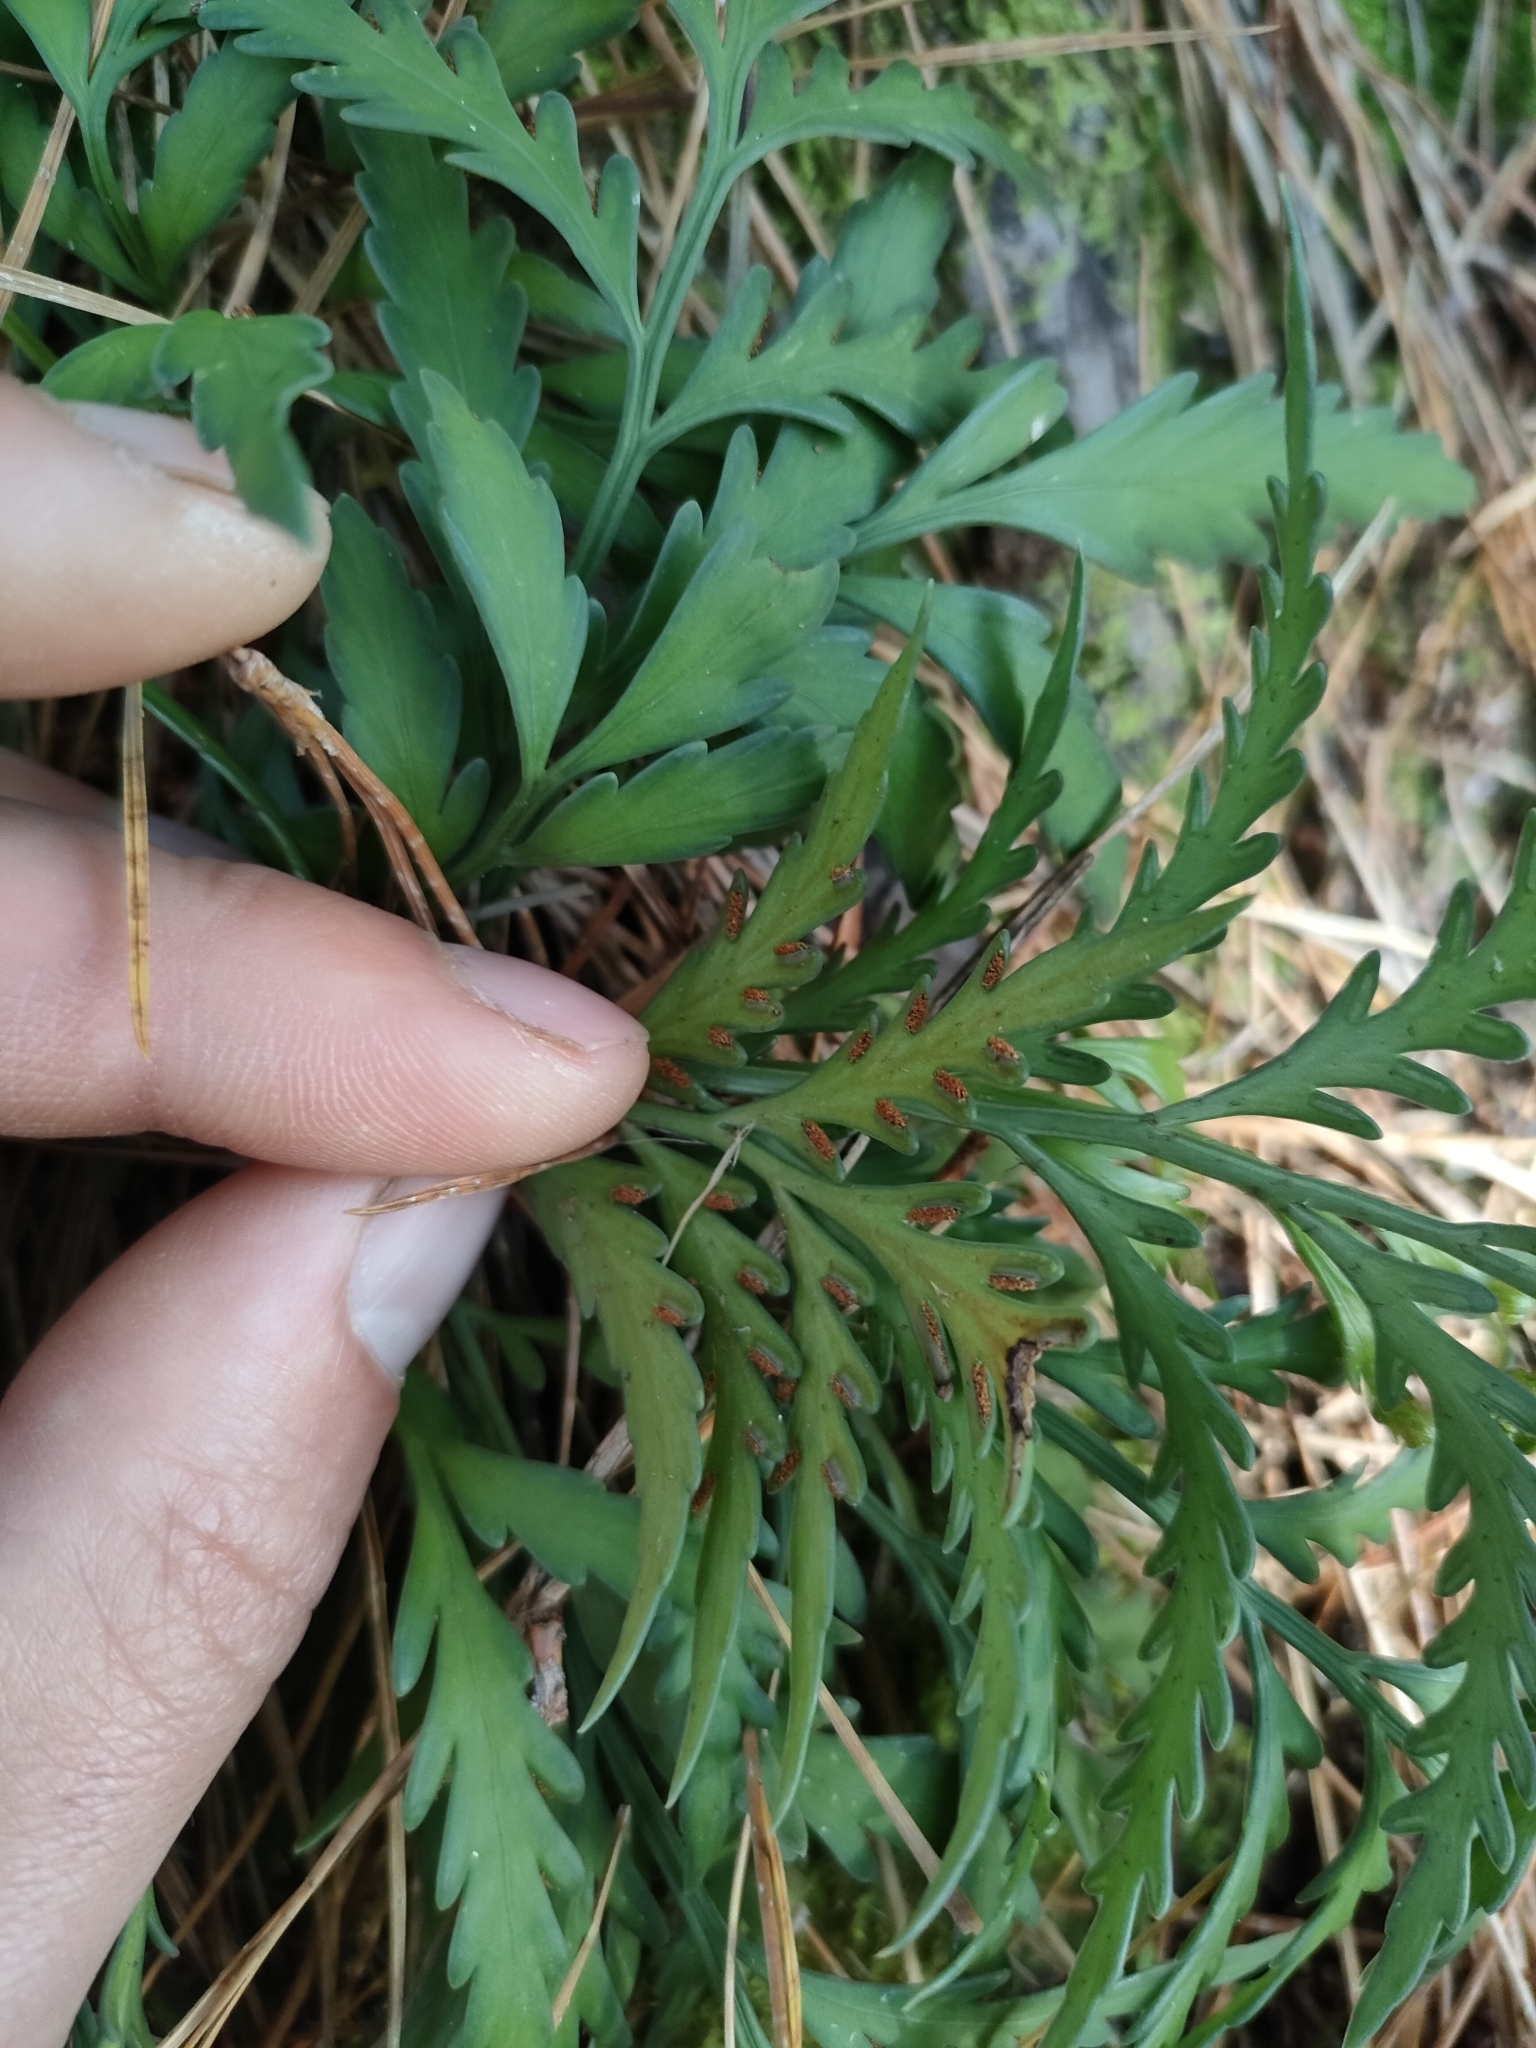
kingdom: Plantae
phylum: Tracheophyta
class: Polypodiopsida
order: Polypodiales
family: Aspleniaceae
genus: Asplenium
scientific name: Asplenium flaccidum
